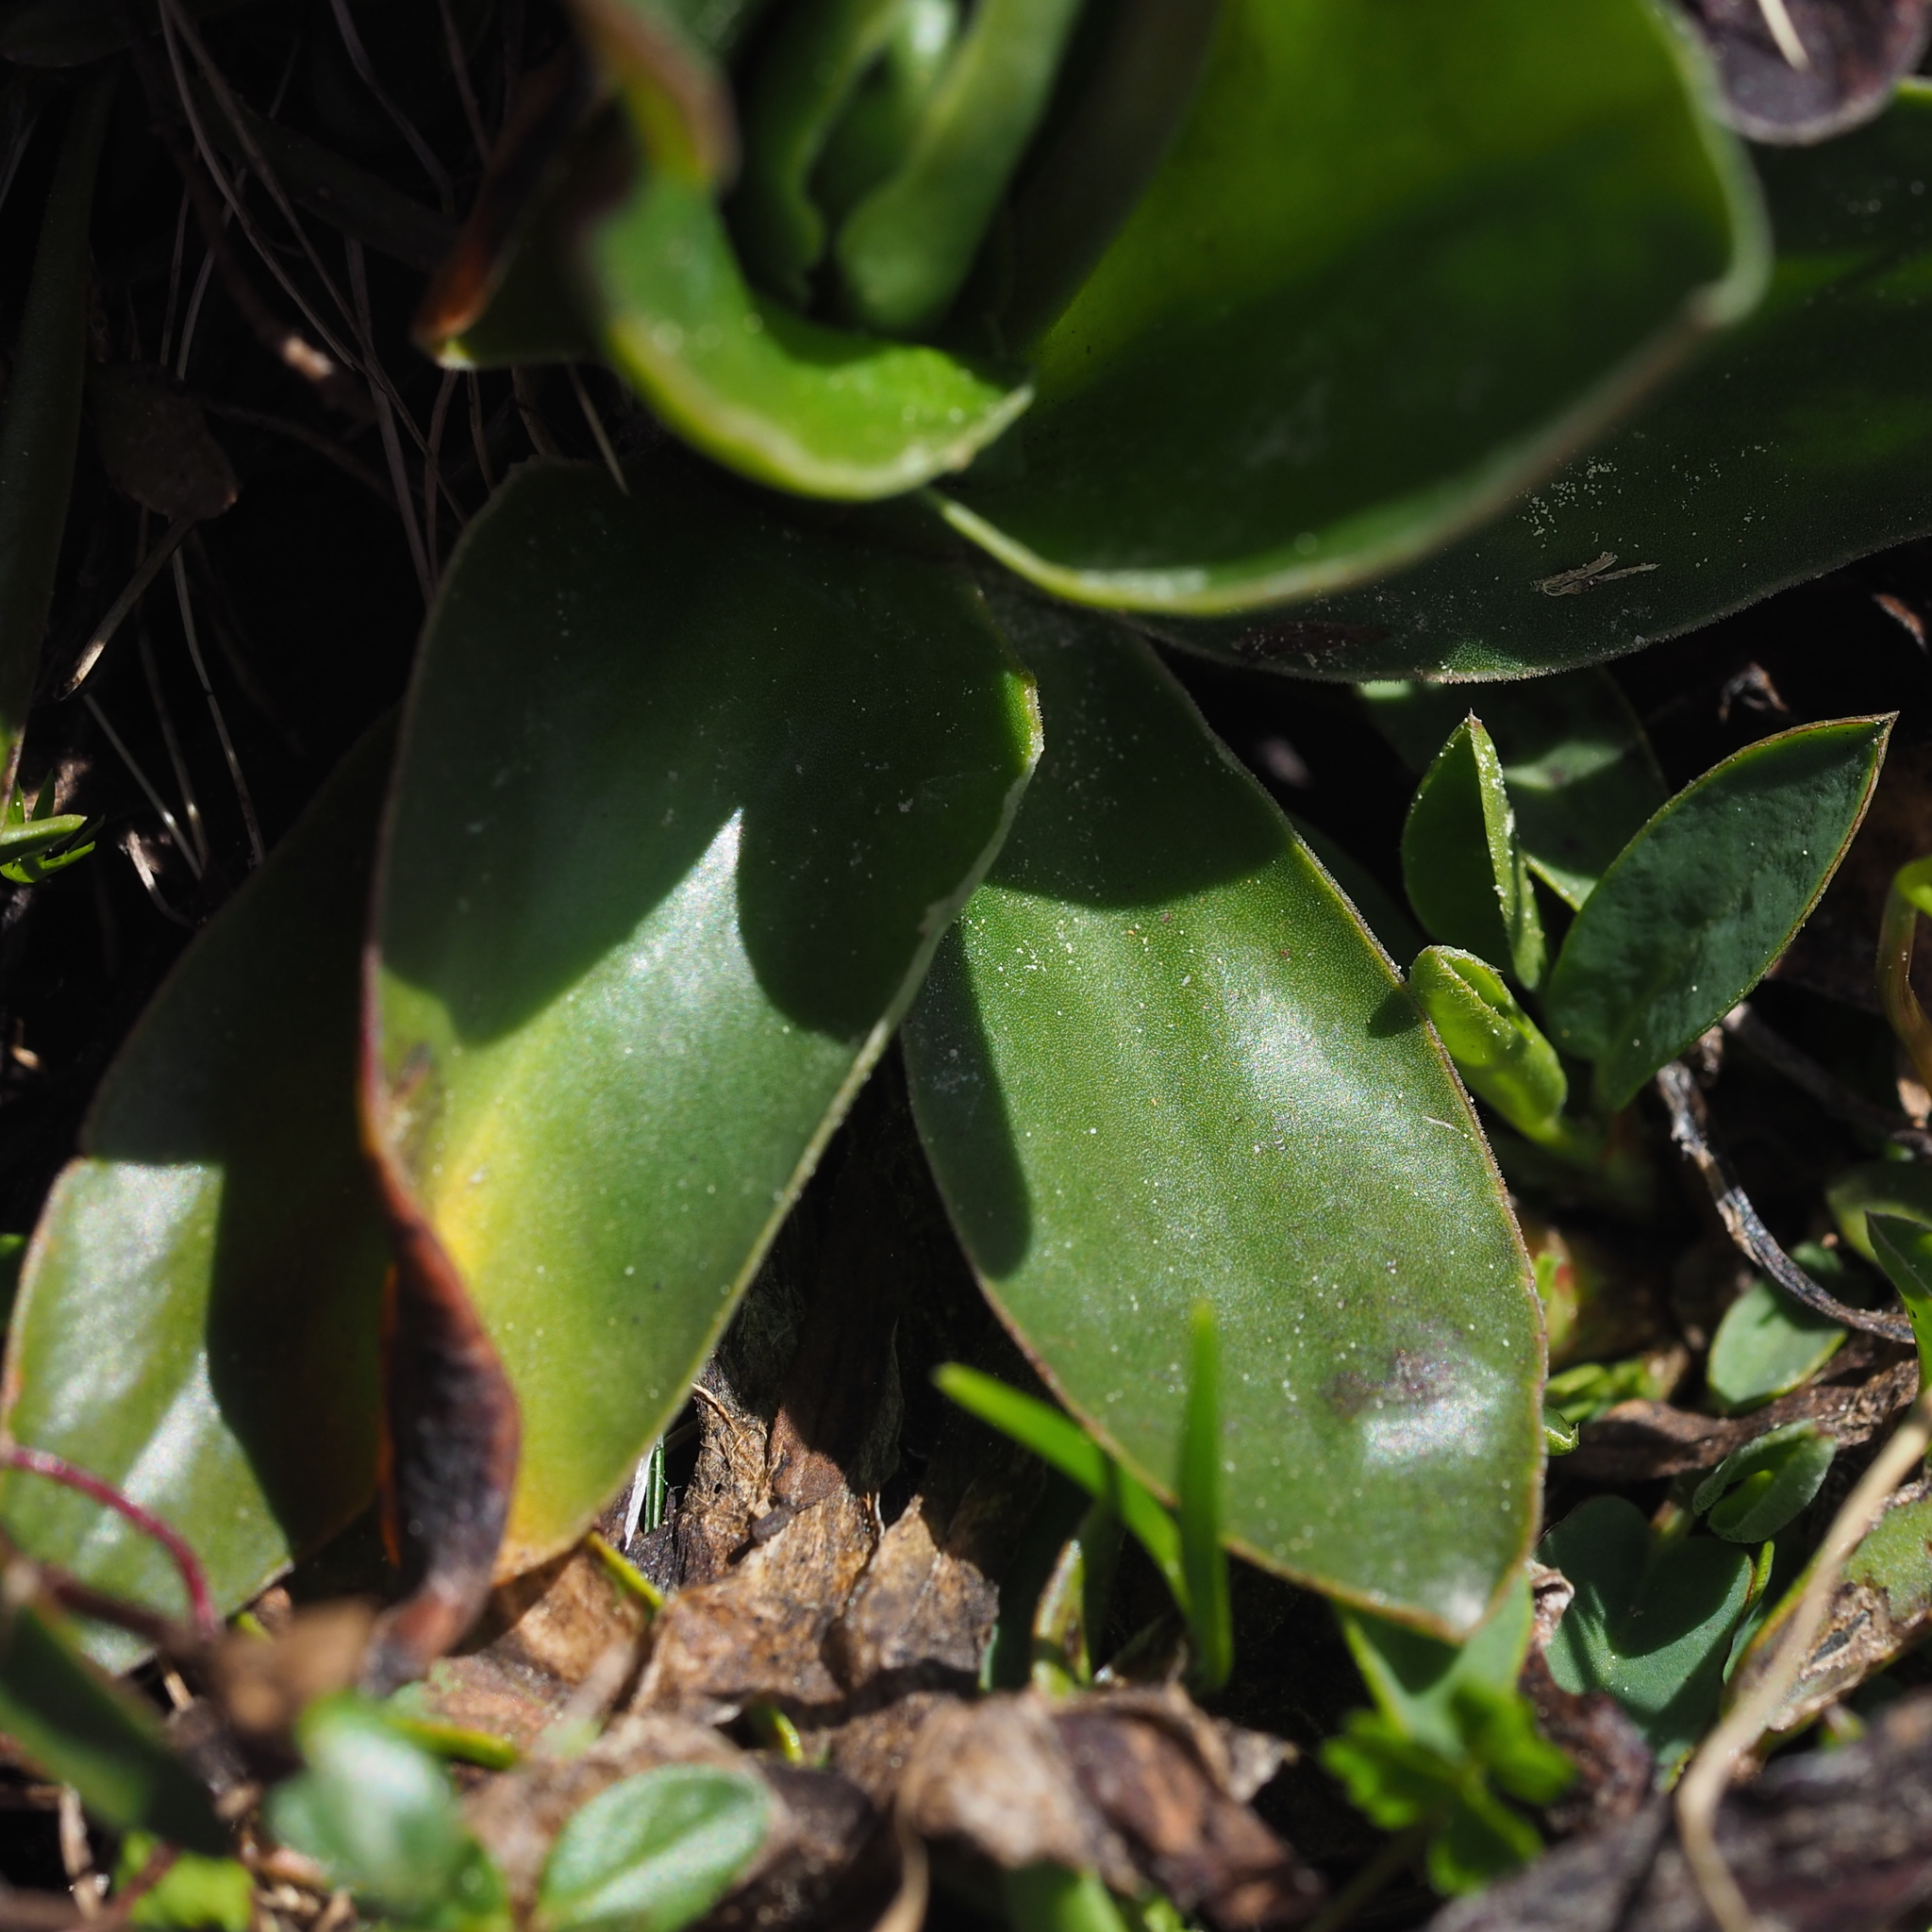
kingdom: Plantae
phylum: Tracheophyta
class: Magnoliopsida
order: Ericales
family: Primulaceae
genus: Primula
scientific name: Primula clusiana
